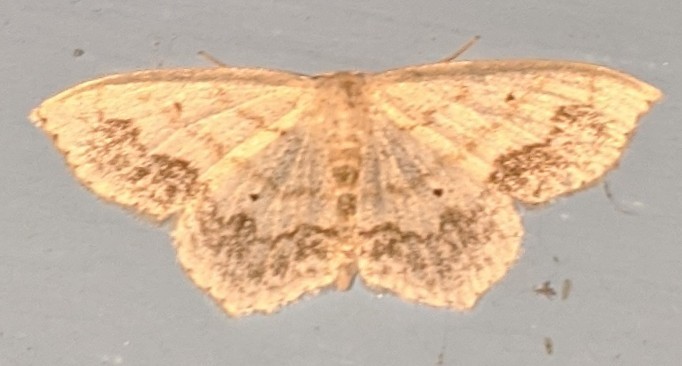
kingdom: Animalia
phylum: Arthropoda
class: Insecta
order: Lepidoptera
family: Geometridae
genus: Scopula
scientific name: Scopula limboundata
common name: Large lace border
